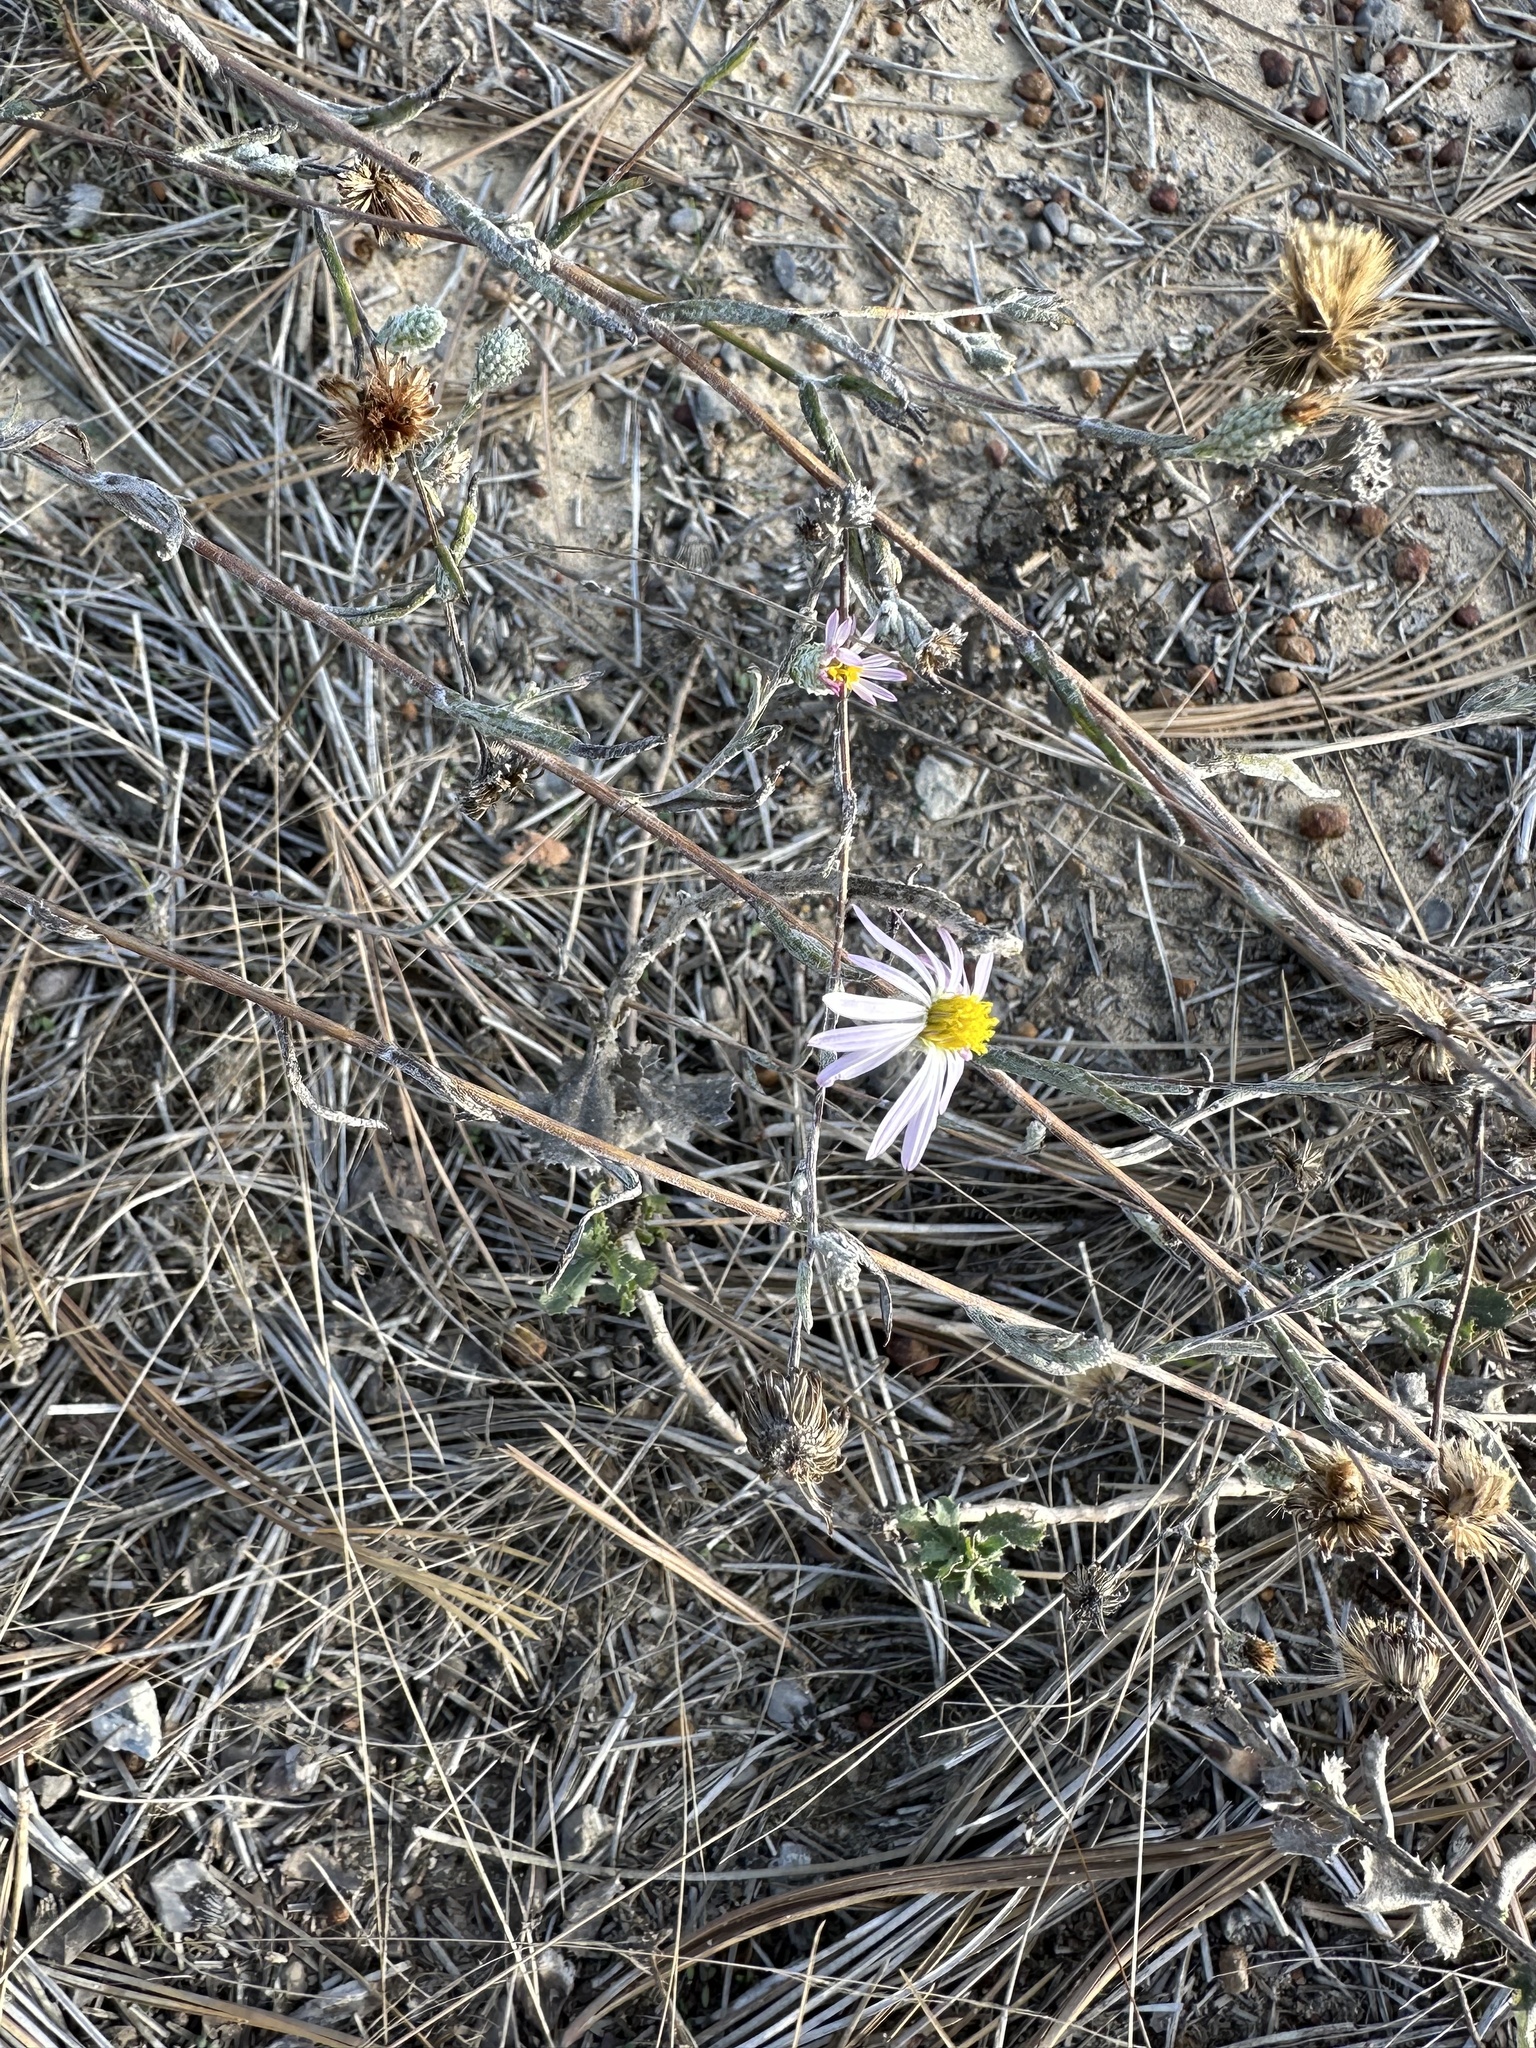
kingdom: Plantae
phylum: Tracheophyta
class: Magnoliopsida
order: Asterales
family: Asteraceae
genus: Corethrogyne
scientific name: Corethrogyne filaginifolia
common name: Sand-aster
